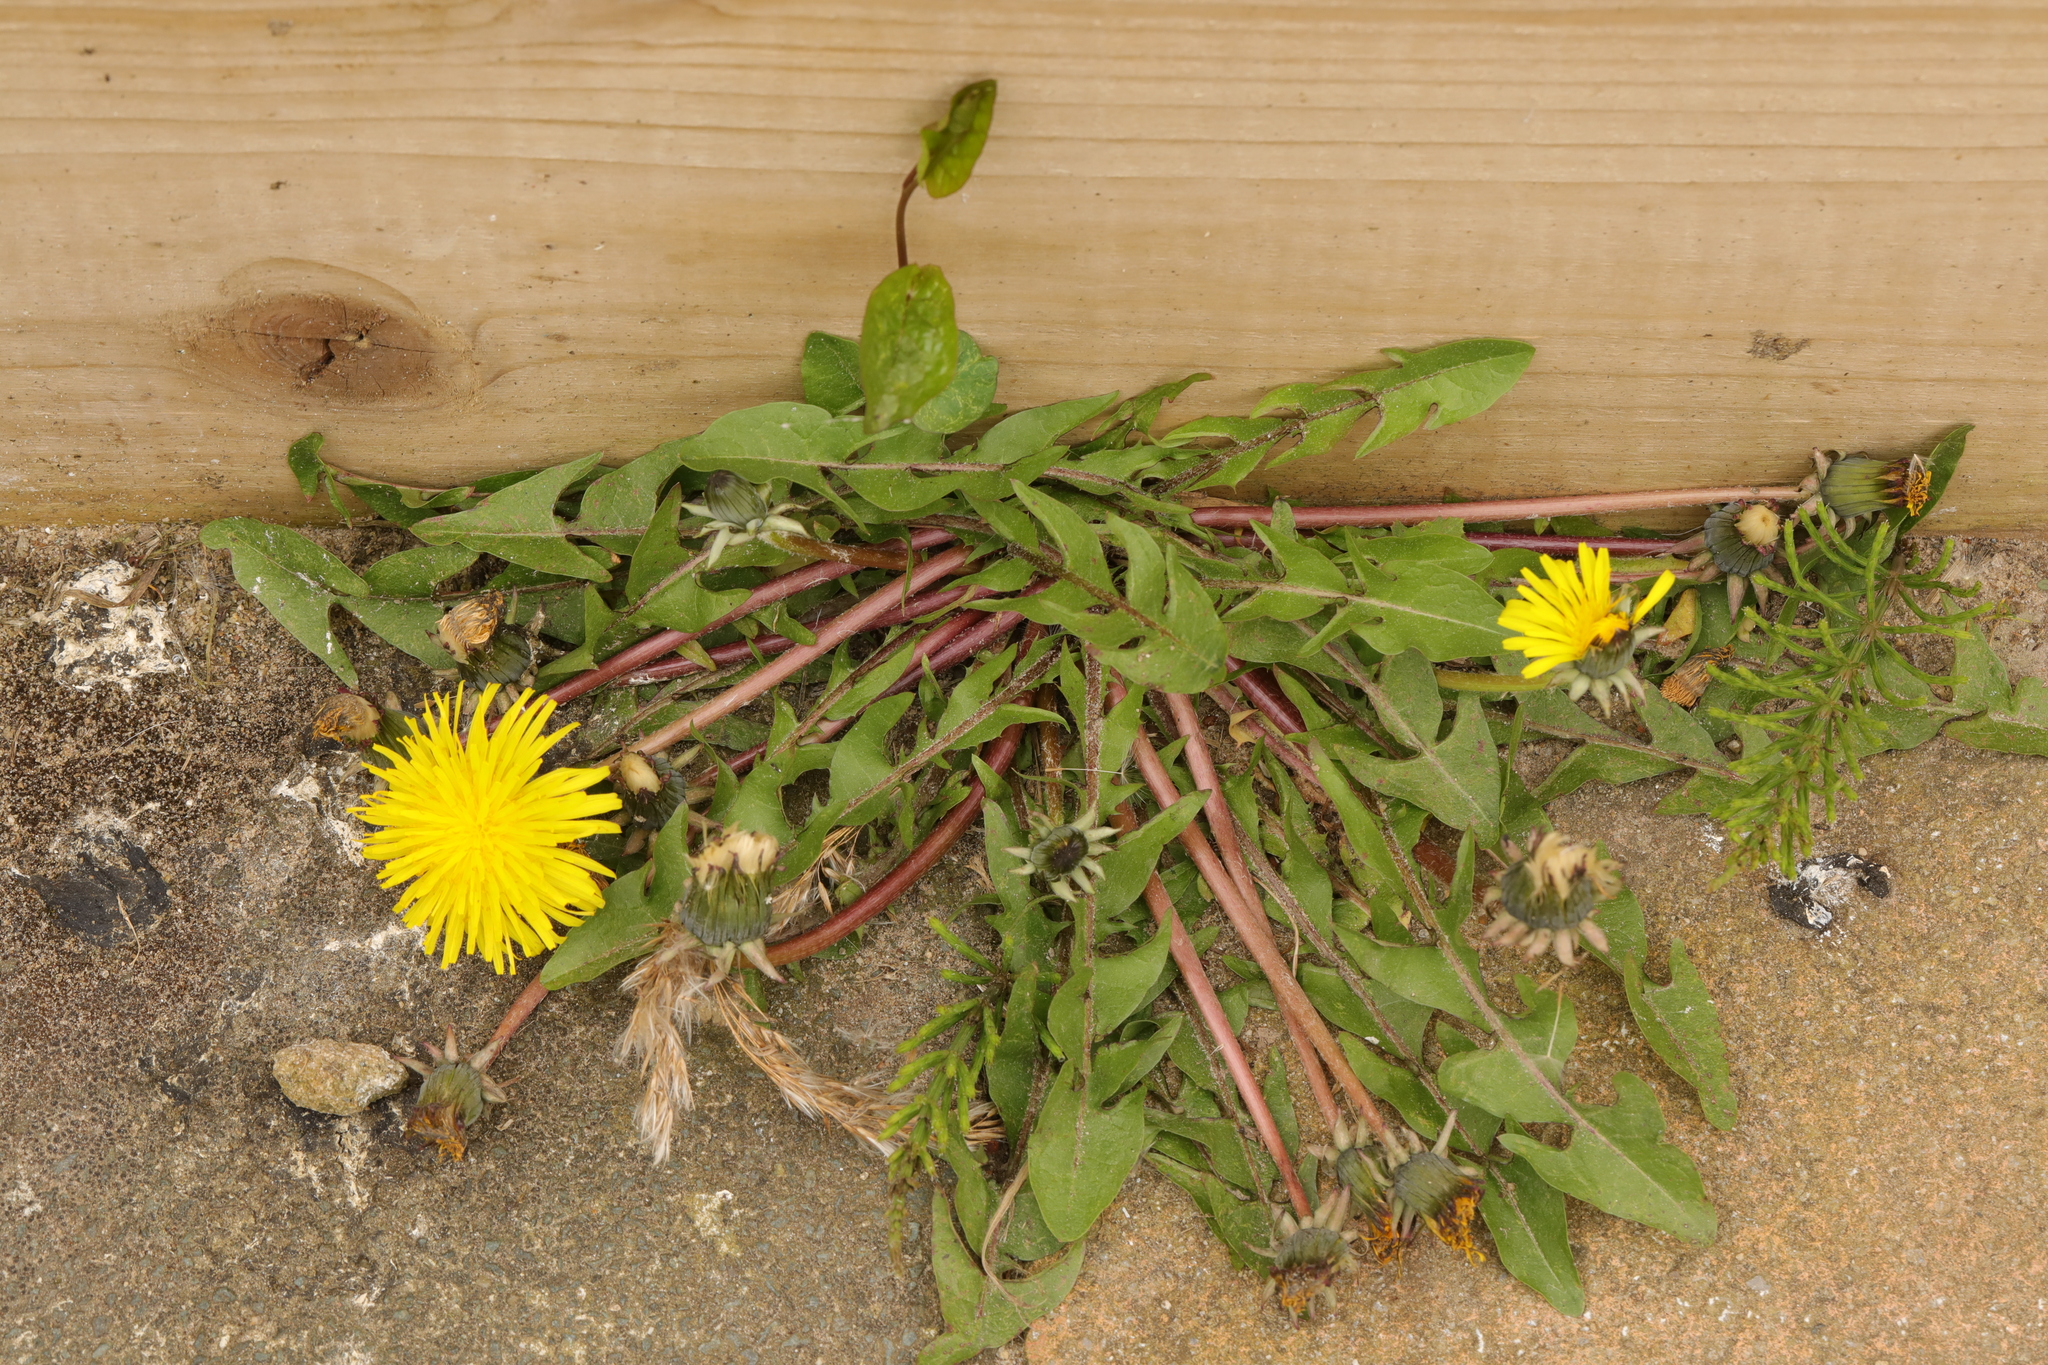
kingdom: Plantae
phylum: Tracheophyta
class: Magnoliopsida
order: Asterales
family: Asteraceae
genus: Taraxacum
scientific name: Taraxacum officinale
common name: Common dandelion
